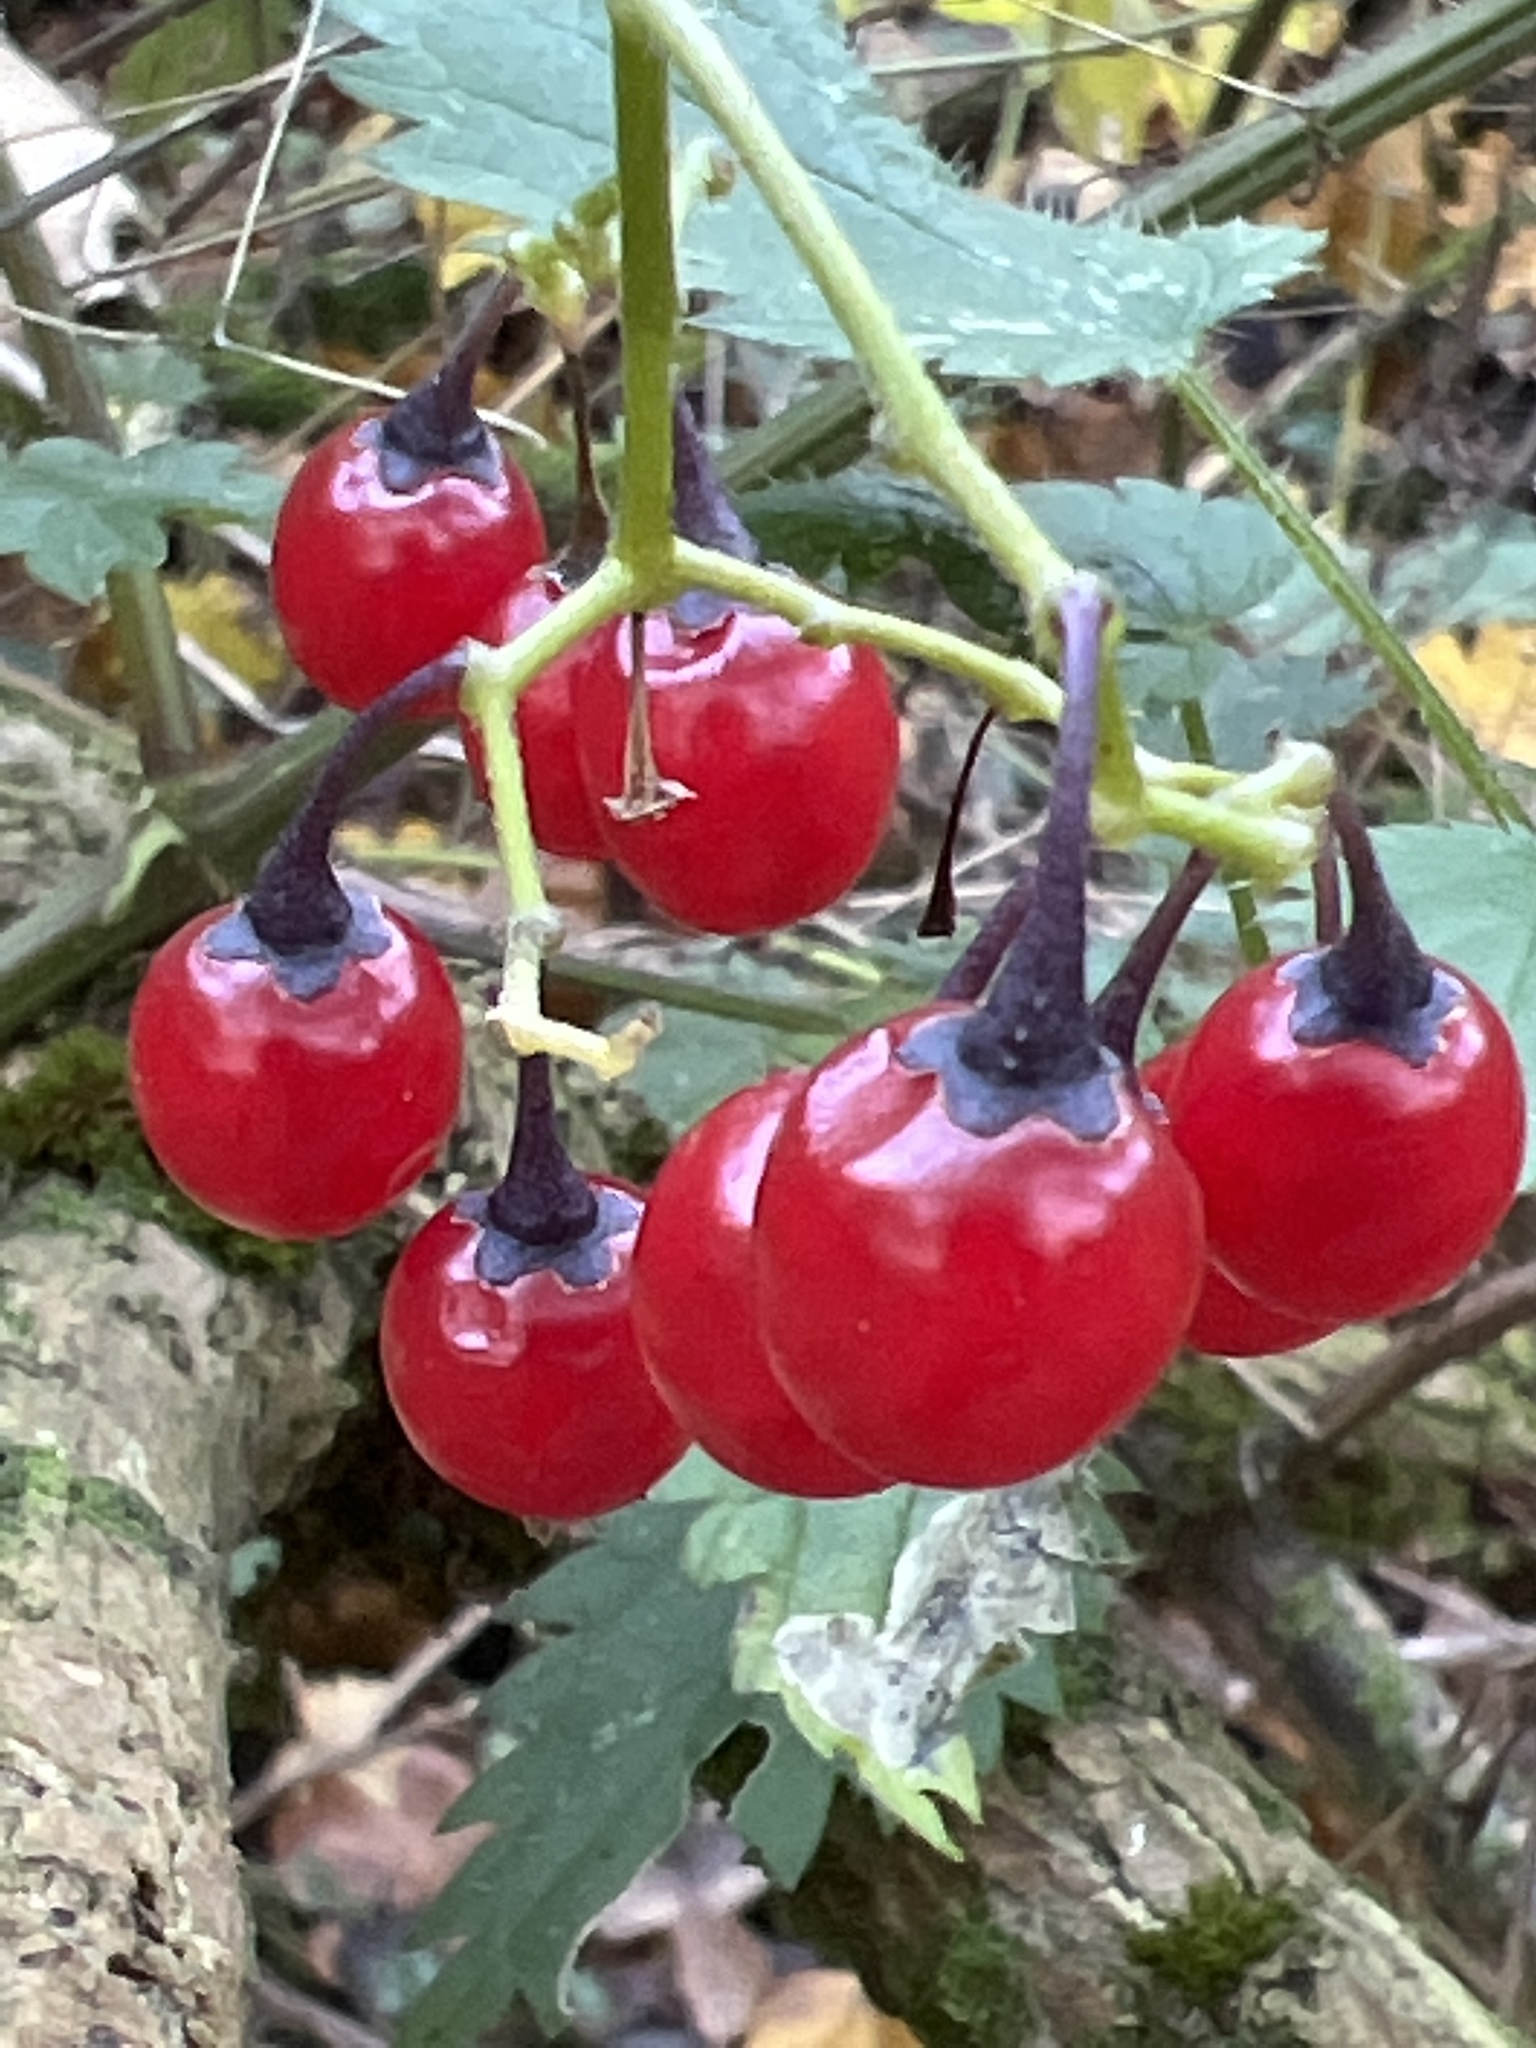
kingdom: Plantae
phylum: Tracheophyta
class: Magnoliopsida
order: Solanales
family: Solanaceae
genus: Solanum
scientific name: Solanum dulcamara
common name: Climbing nightshade
